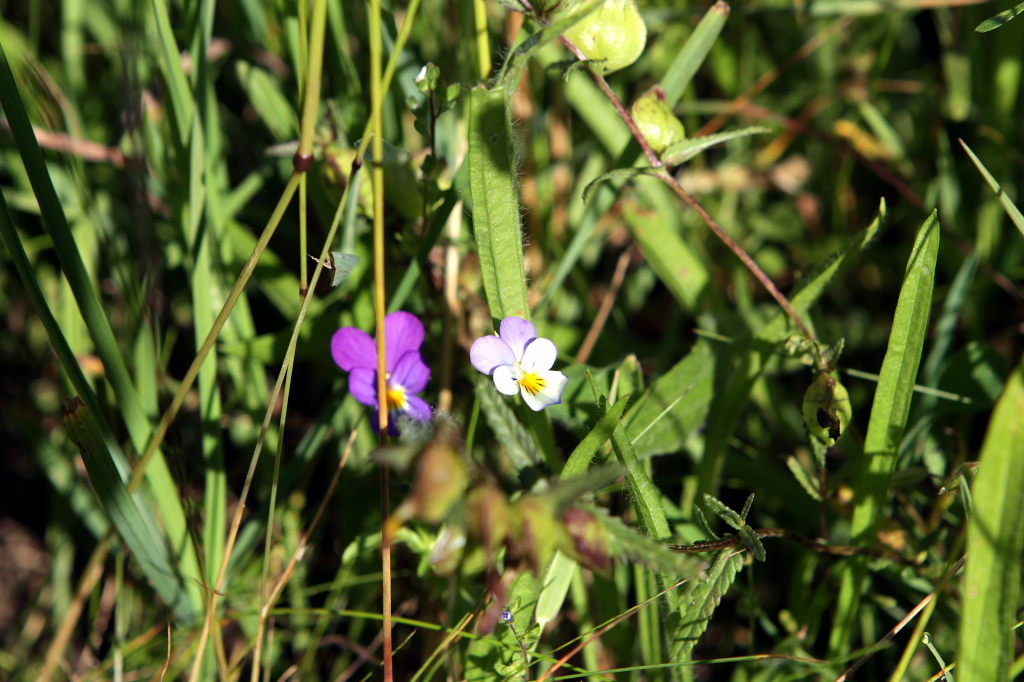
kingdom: Plantae
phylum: Tracheophyta
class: Magnoliopsida
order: Malpighiales
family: Violaceae
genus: Viola
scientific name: Viola tricolor
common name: Pansy
